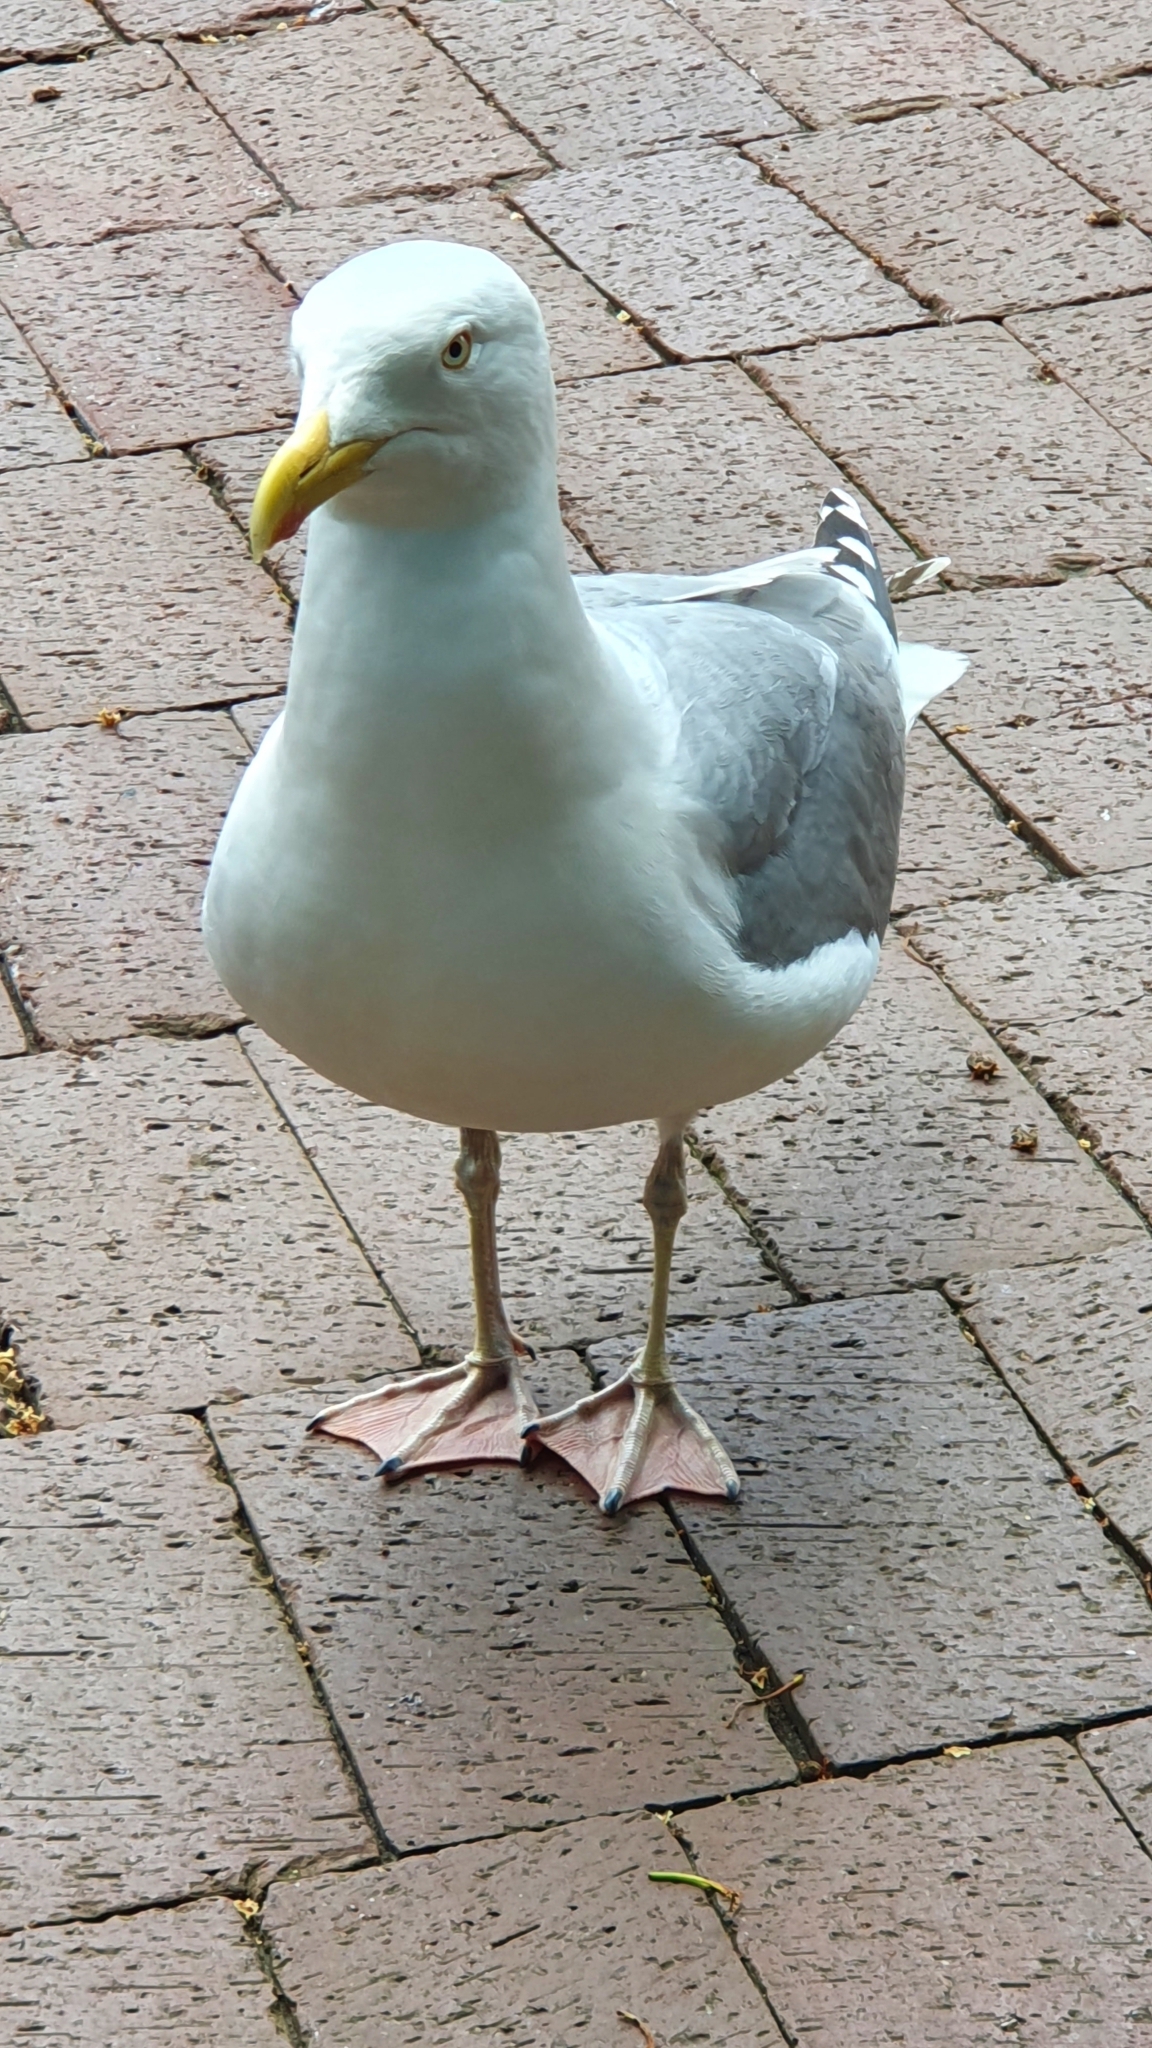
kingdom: Animalia
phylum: Chordata
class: Aves
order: Charadriiformes
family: Laridae
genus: Larus
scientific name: Larus argentatus
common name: Herring gull
